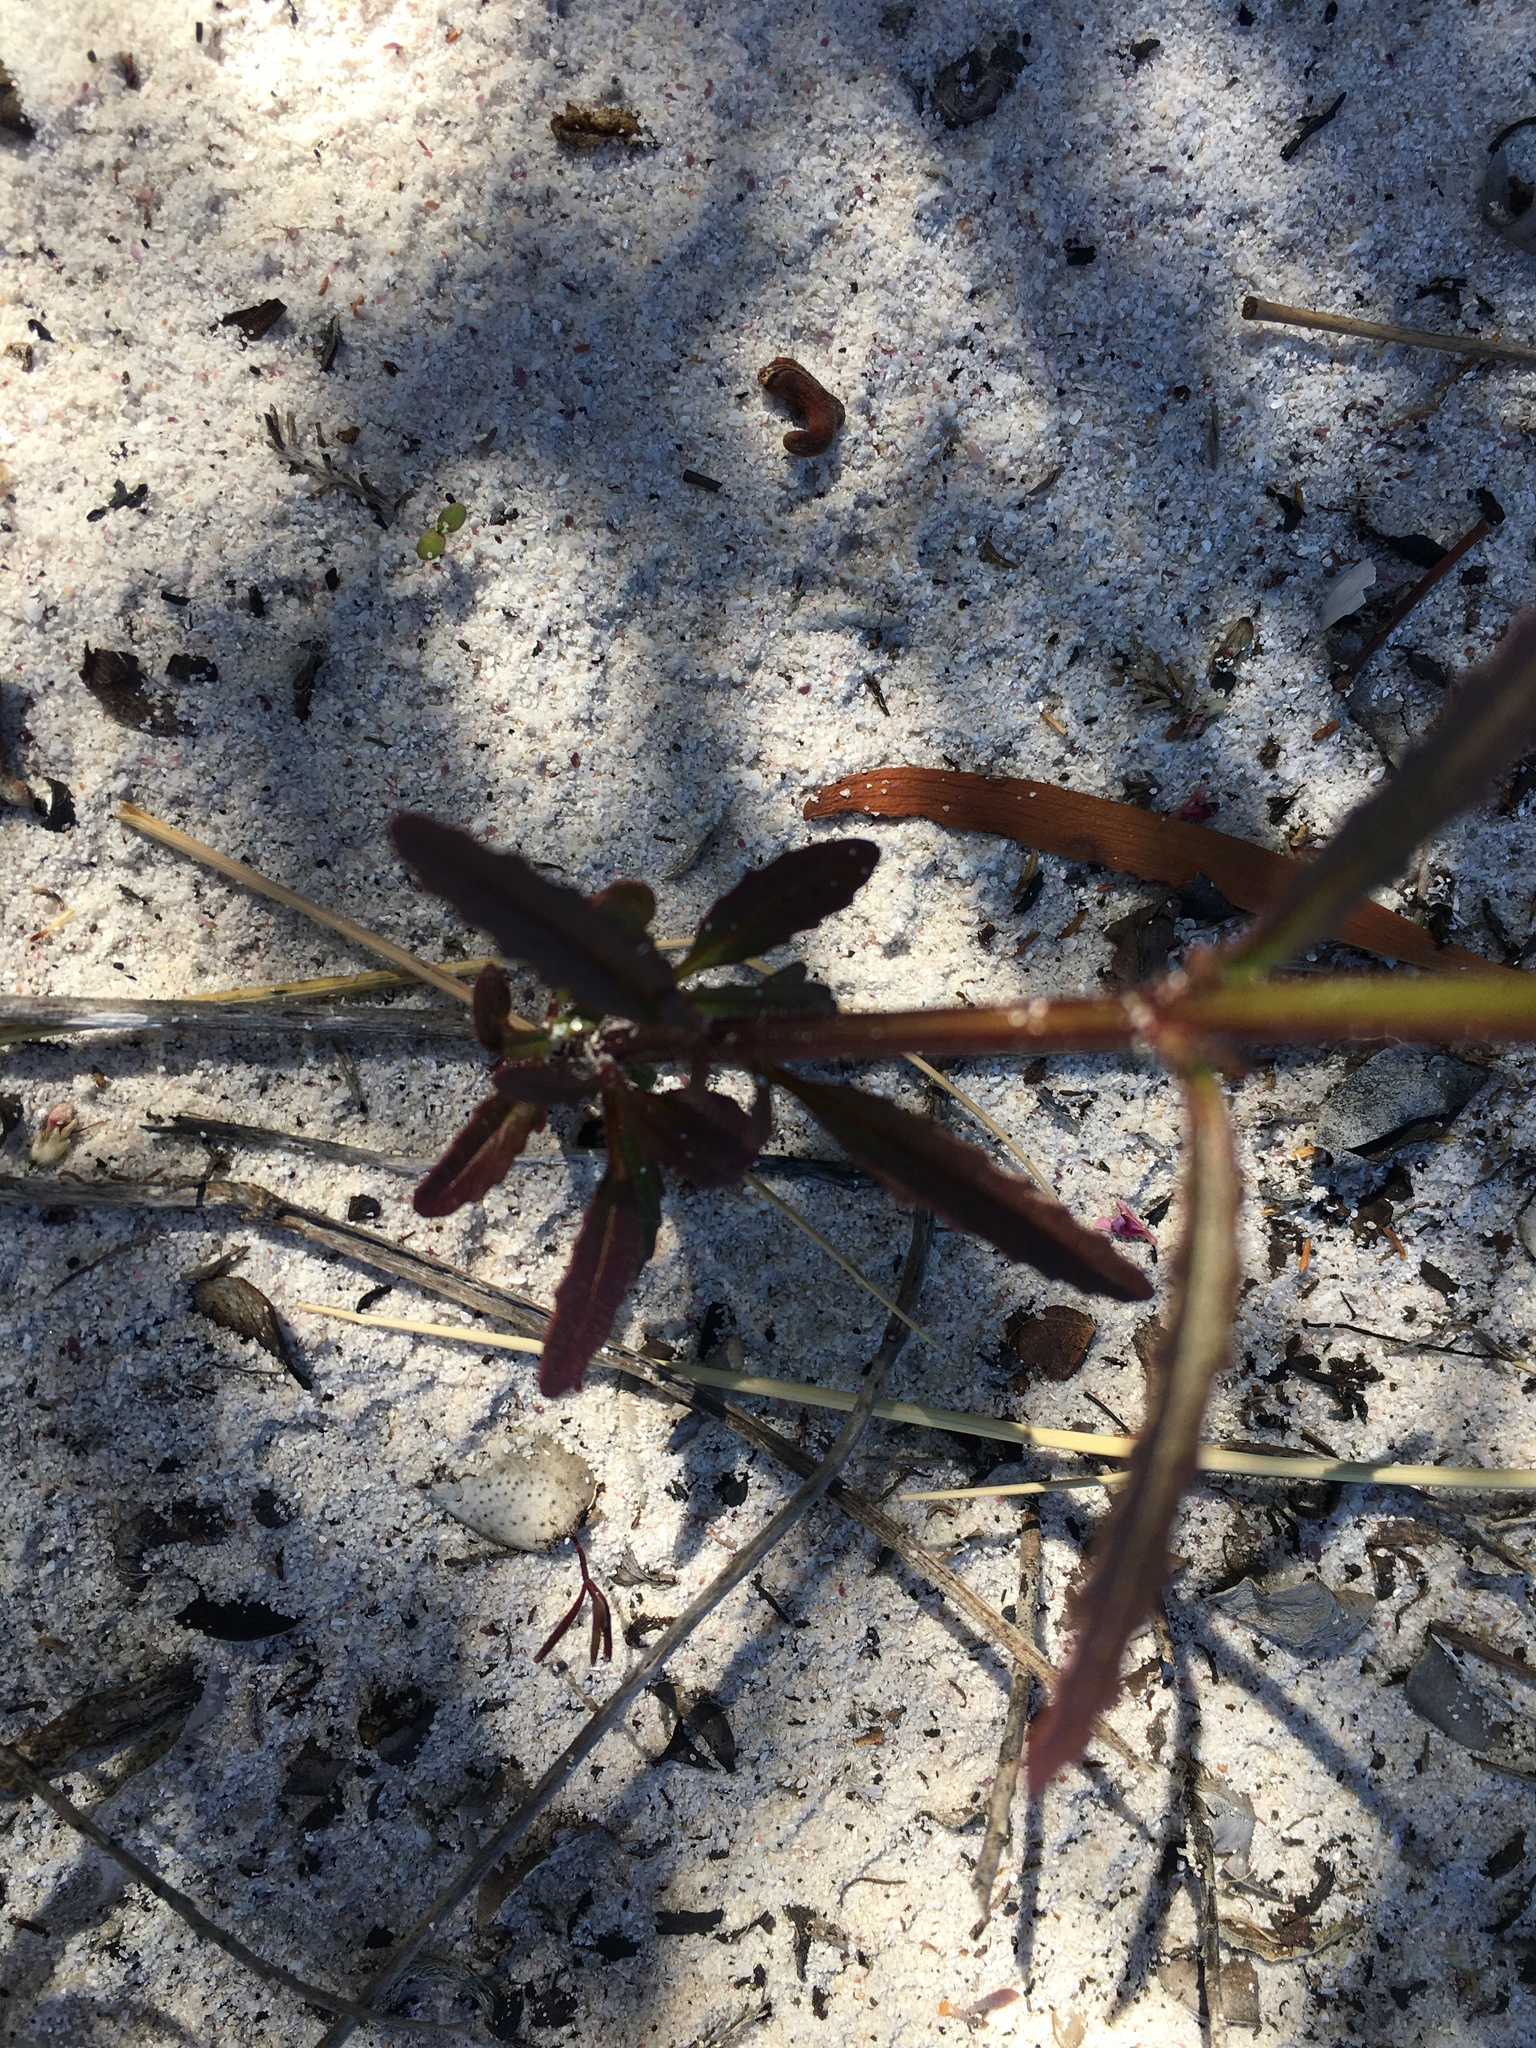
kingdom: Plantae
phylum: Tracheophyta
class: Magnoliopsida
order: Lamiales
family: Scrophulariaceae
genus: Nemesia
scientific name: Nemesia affinis
